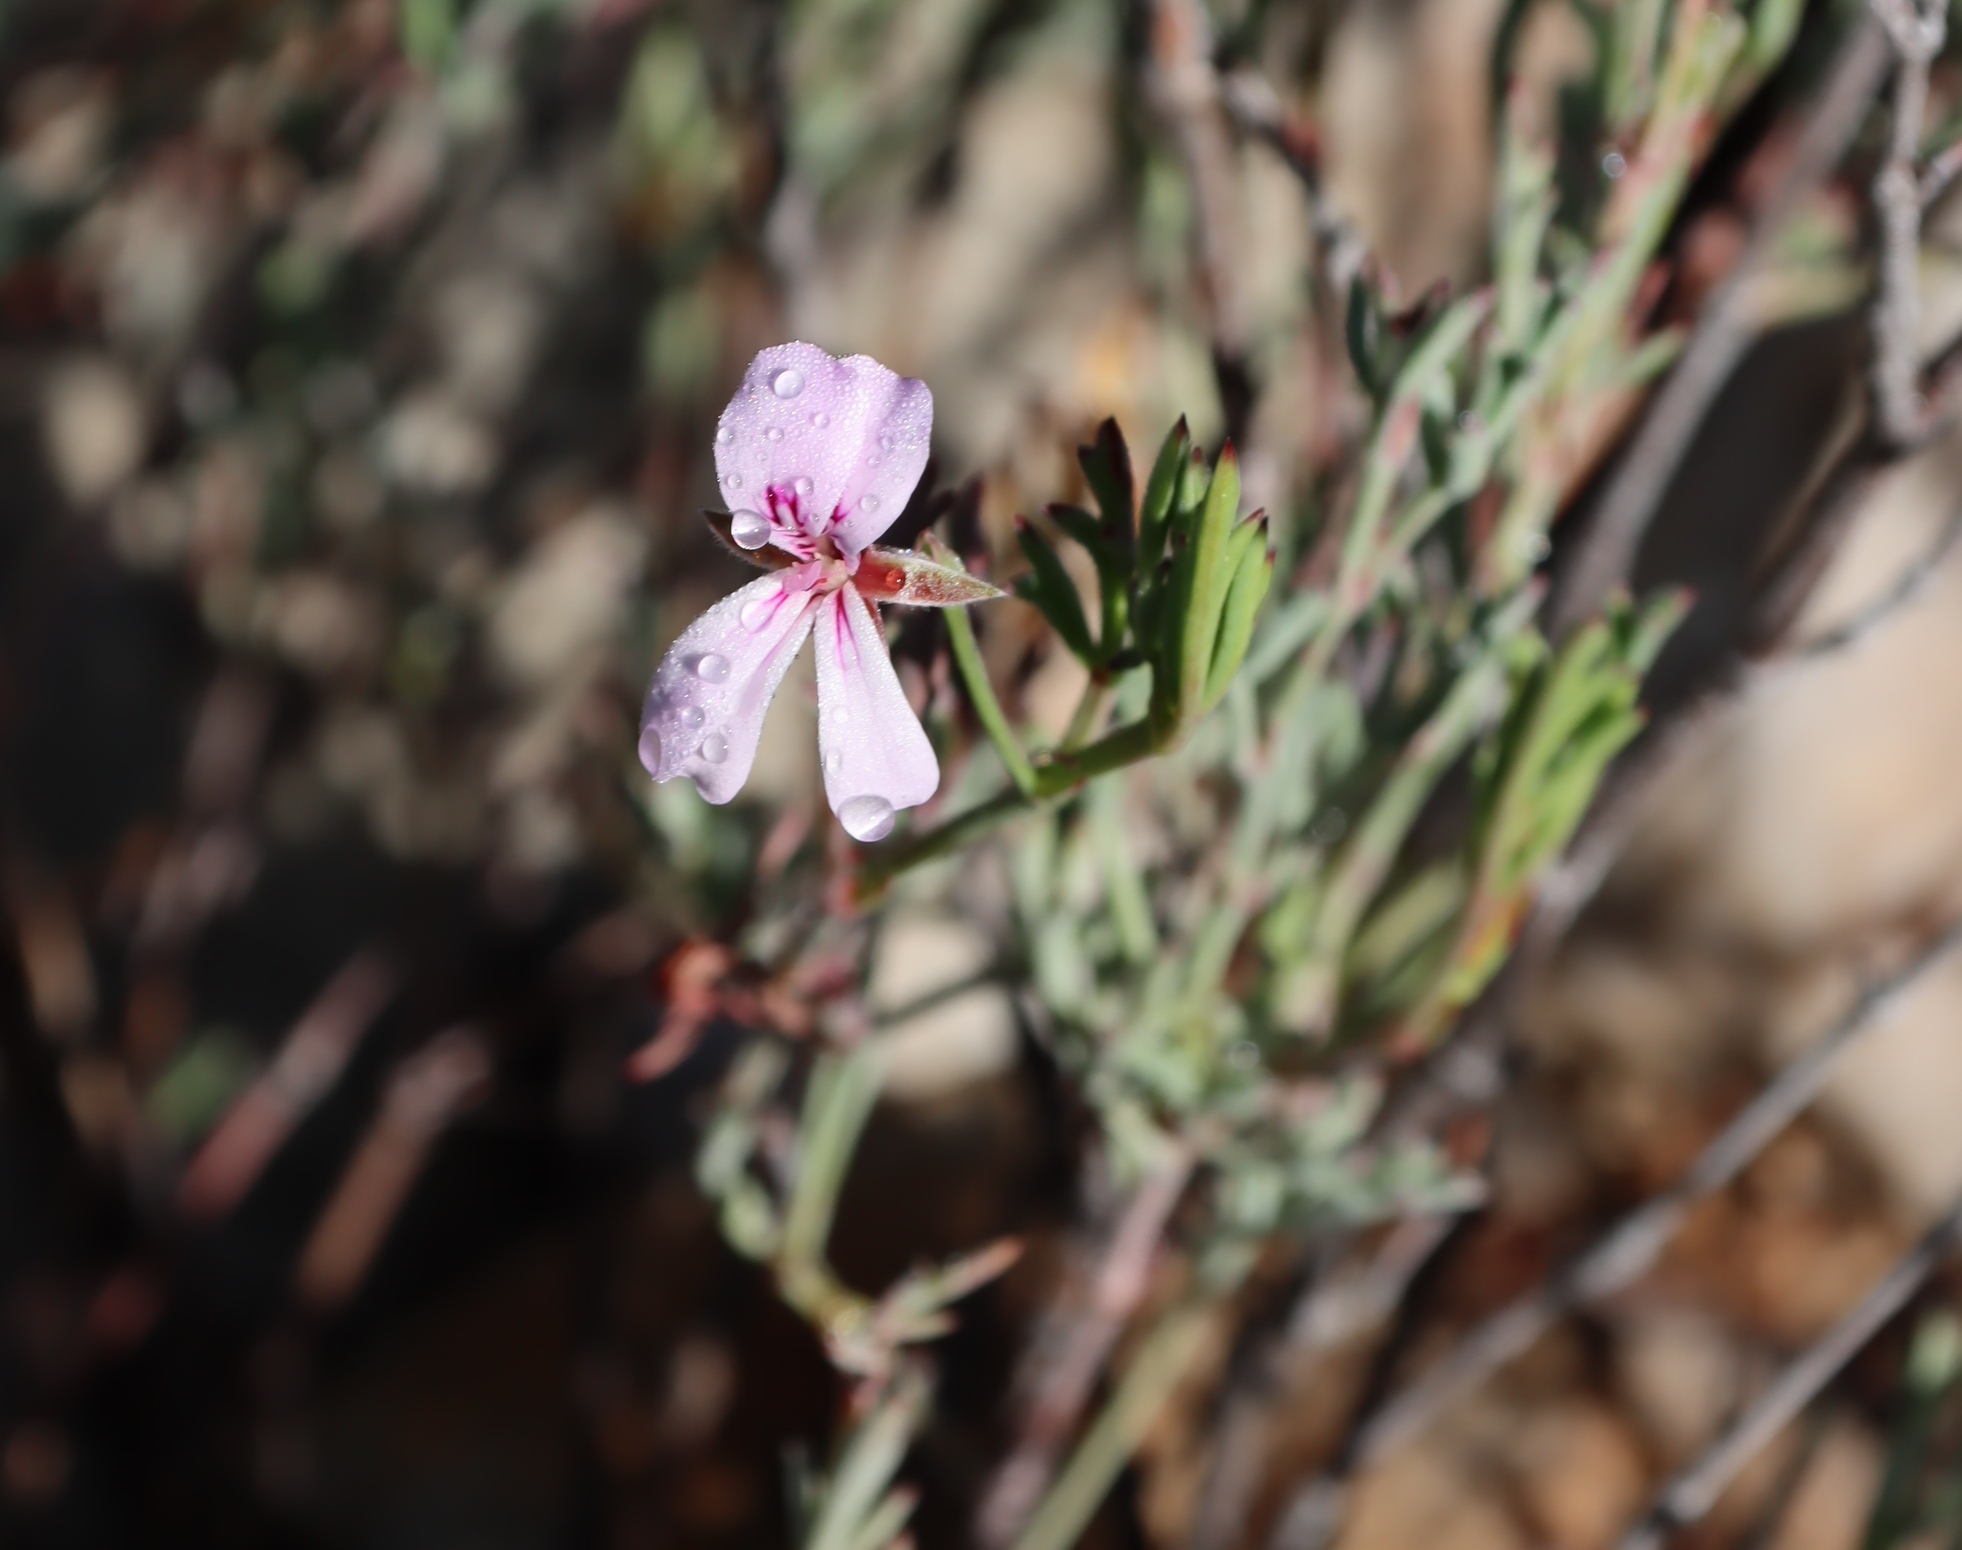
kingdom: Plantae
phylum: Tracheophyta
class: Magnoliopsida
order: Geraniales
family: Geraniaceae
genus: Pelargonium
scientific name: Pelargonium laevigatum
